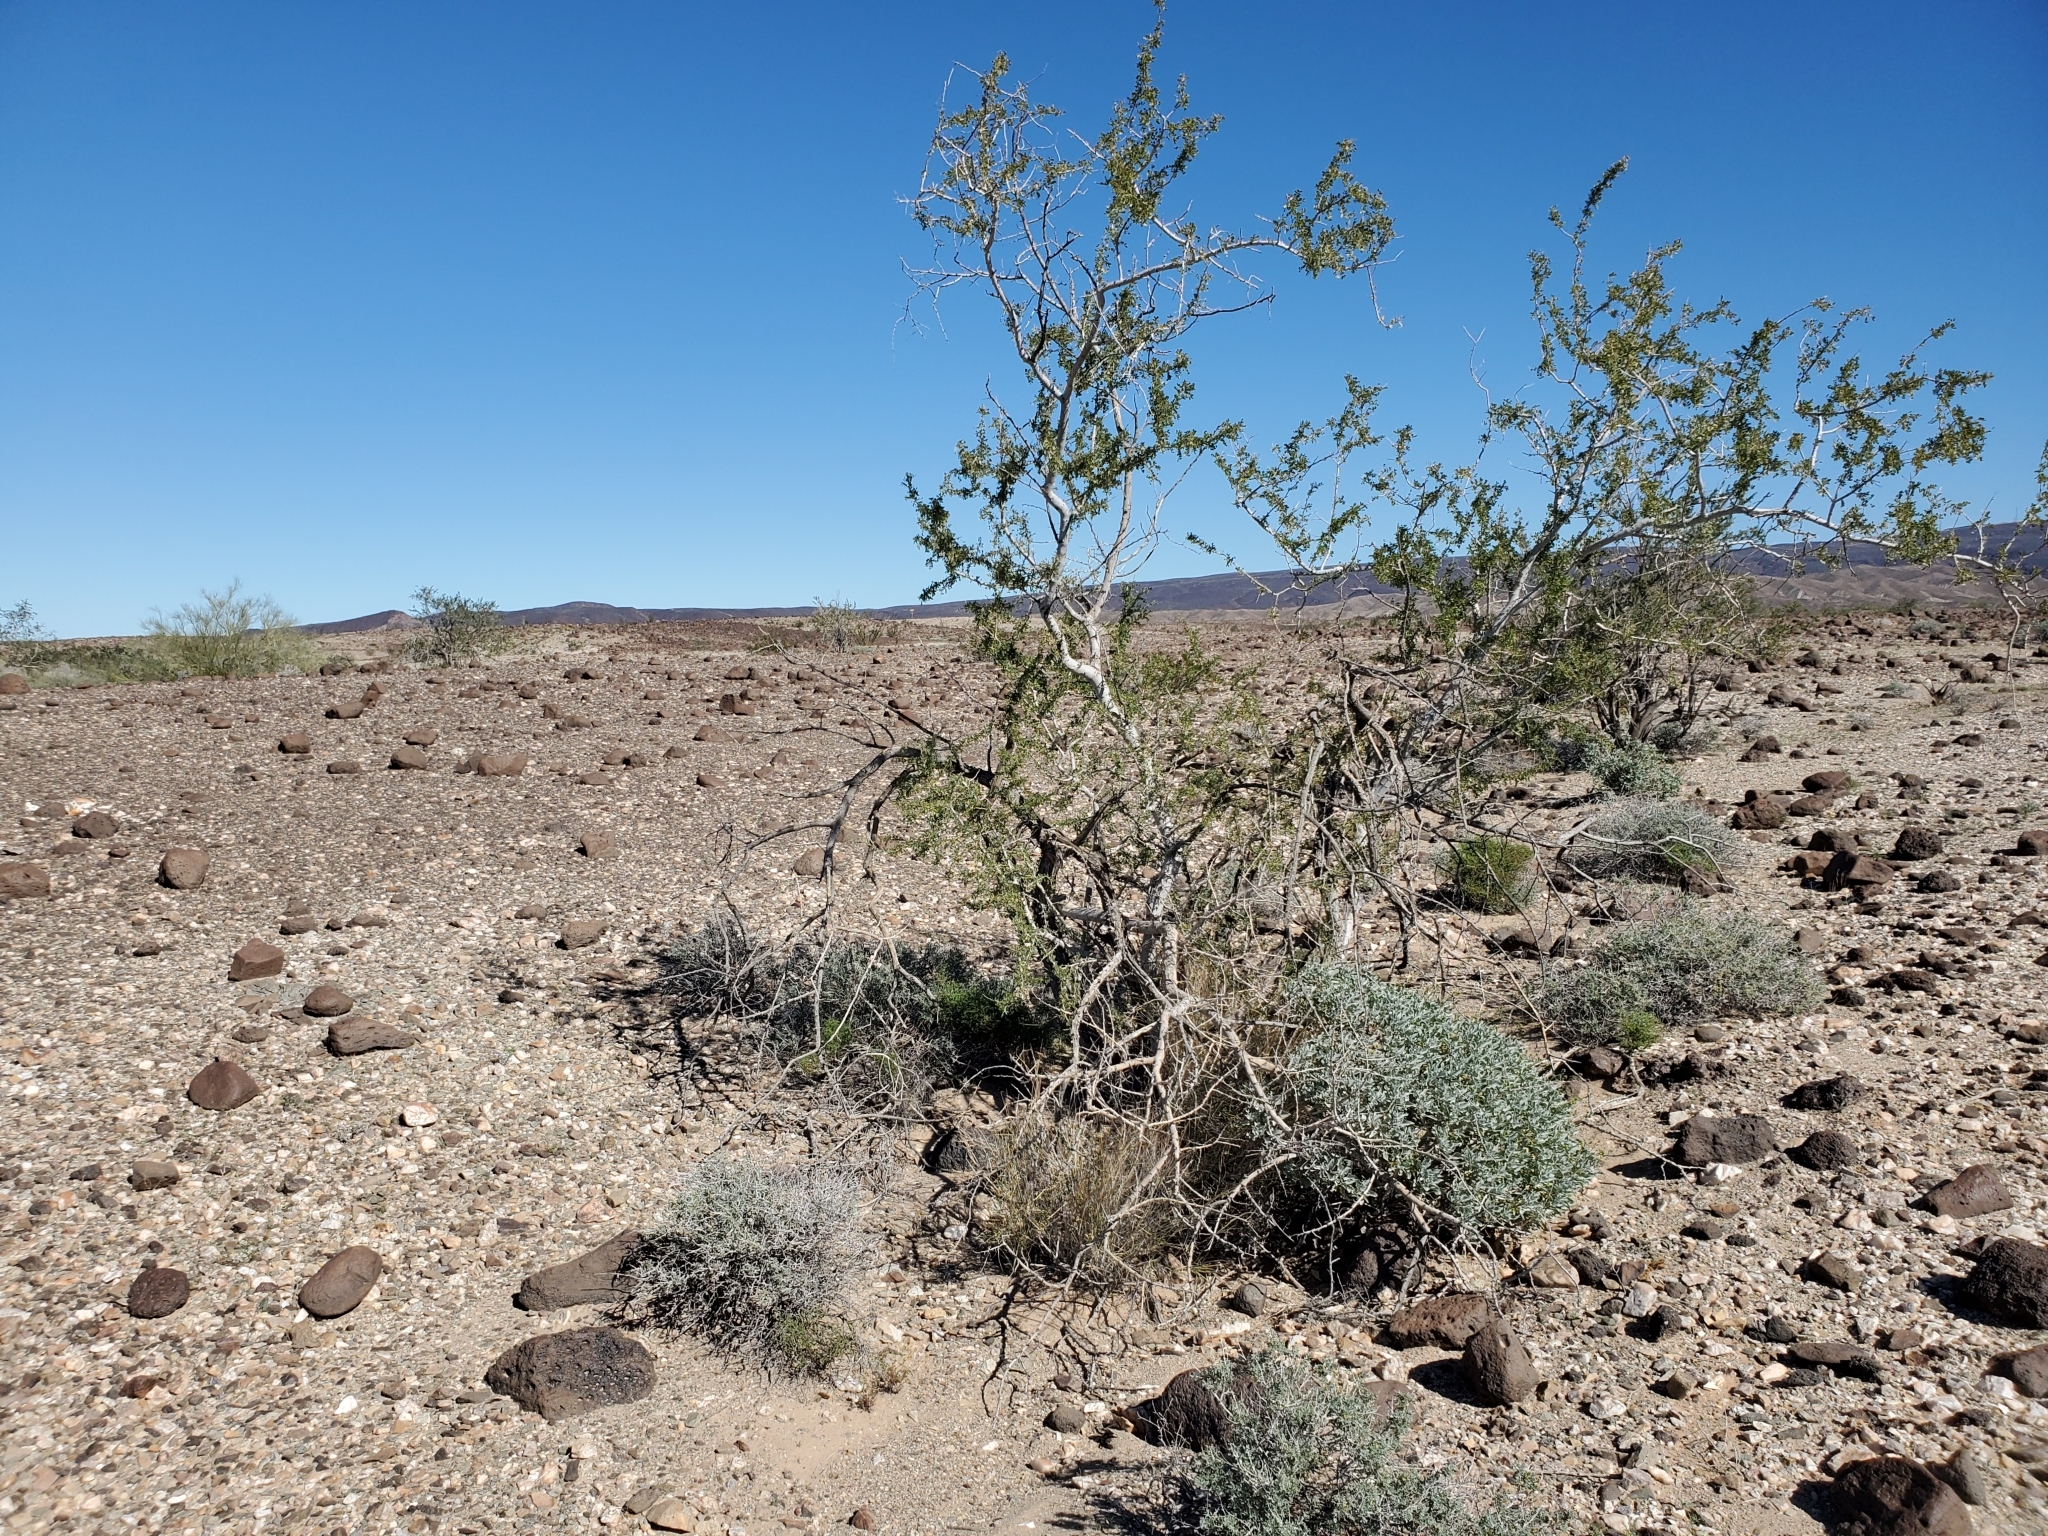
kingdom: Plantae
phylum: Tracheophyta
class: Magnoliopsida
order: Fabales
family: Fabaceae
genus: Olneya
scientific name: Olneya tesota
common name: Desert ironwood
